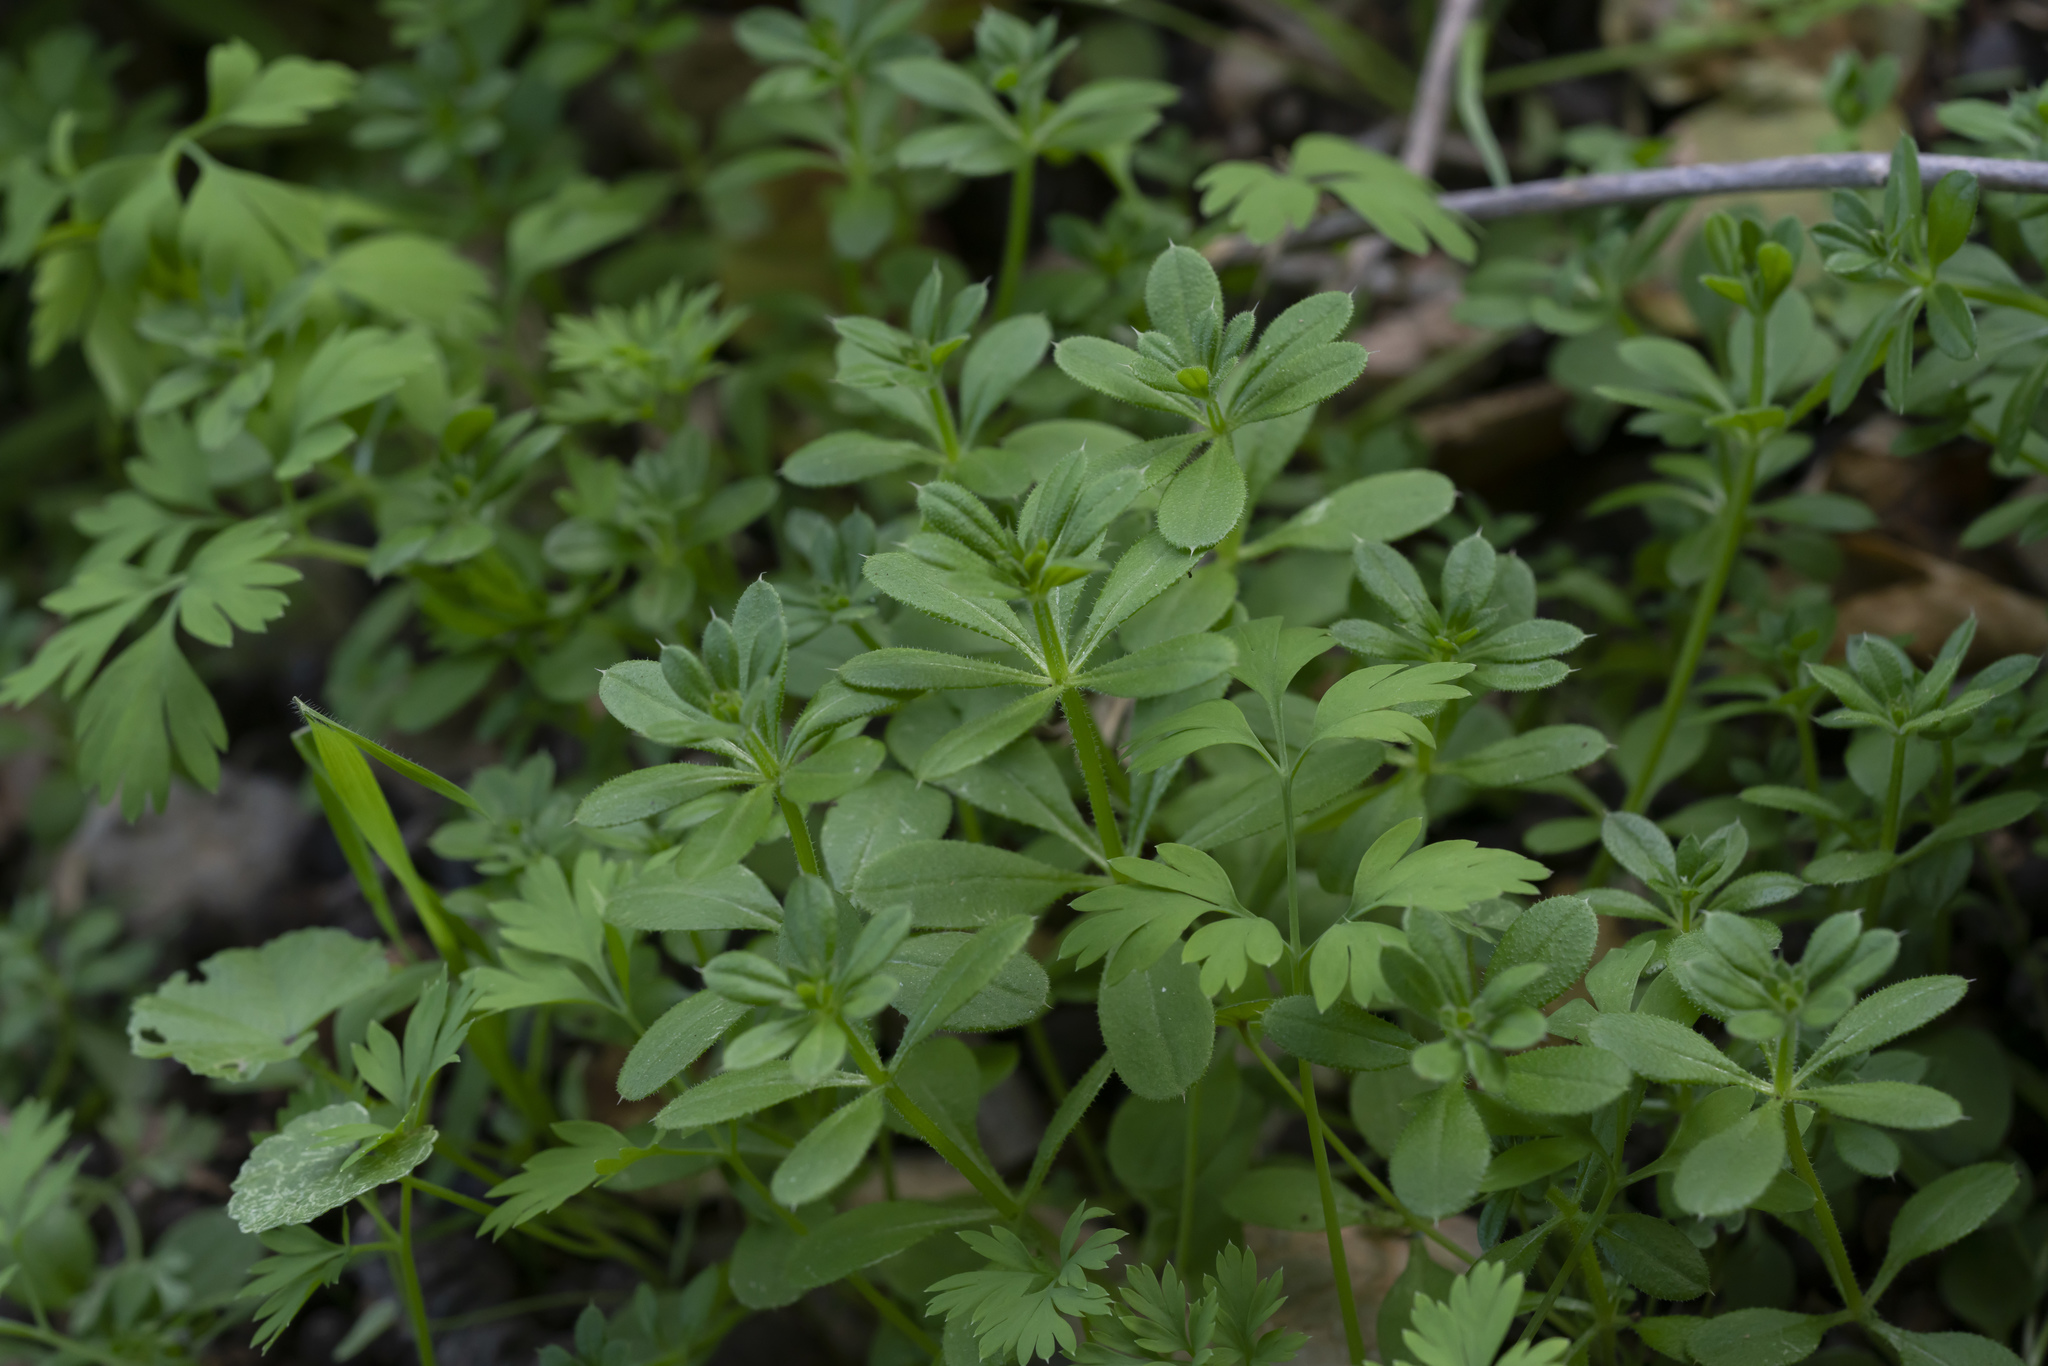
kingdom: Plantae
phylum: Tracheophyta
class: Magnoliopsida
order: Gentianales
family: Rubiaceae
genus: Galium
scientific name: Galium aparine
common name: Cleavers
